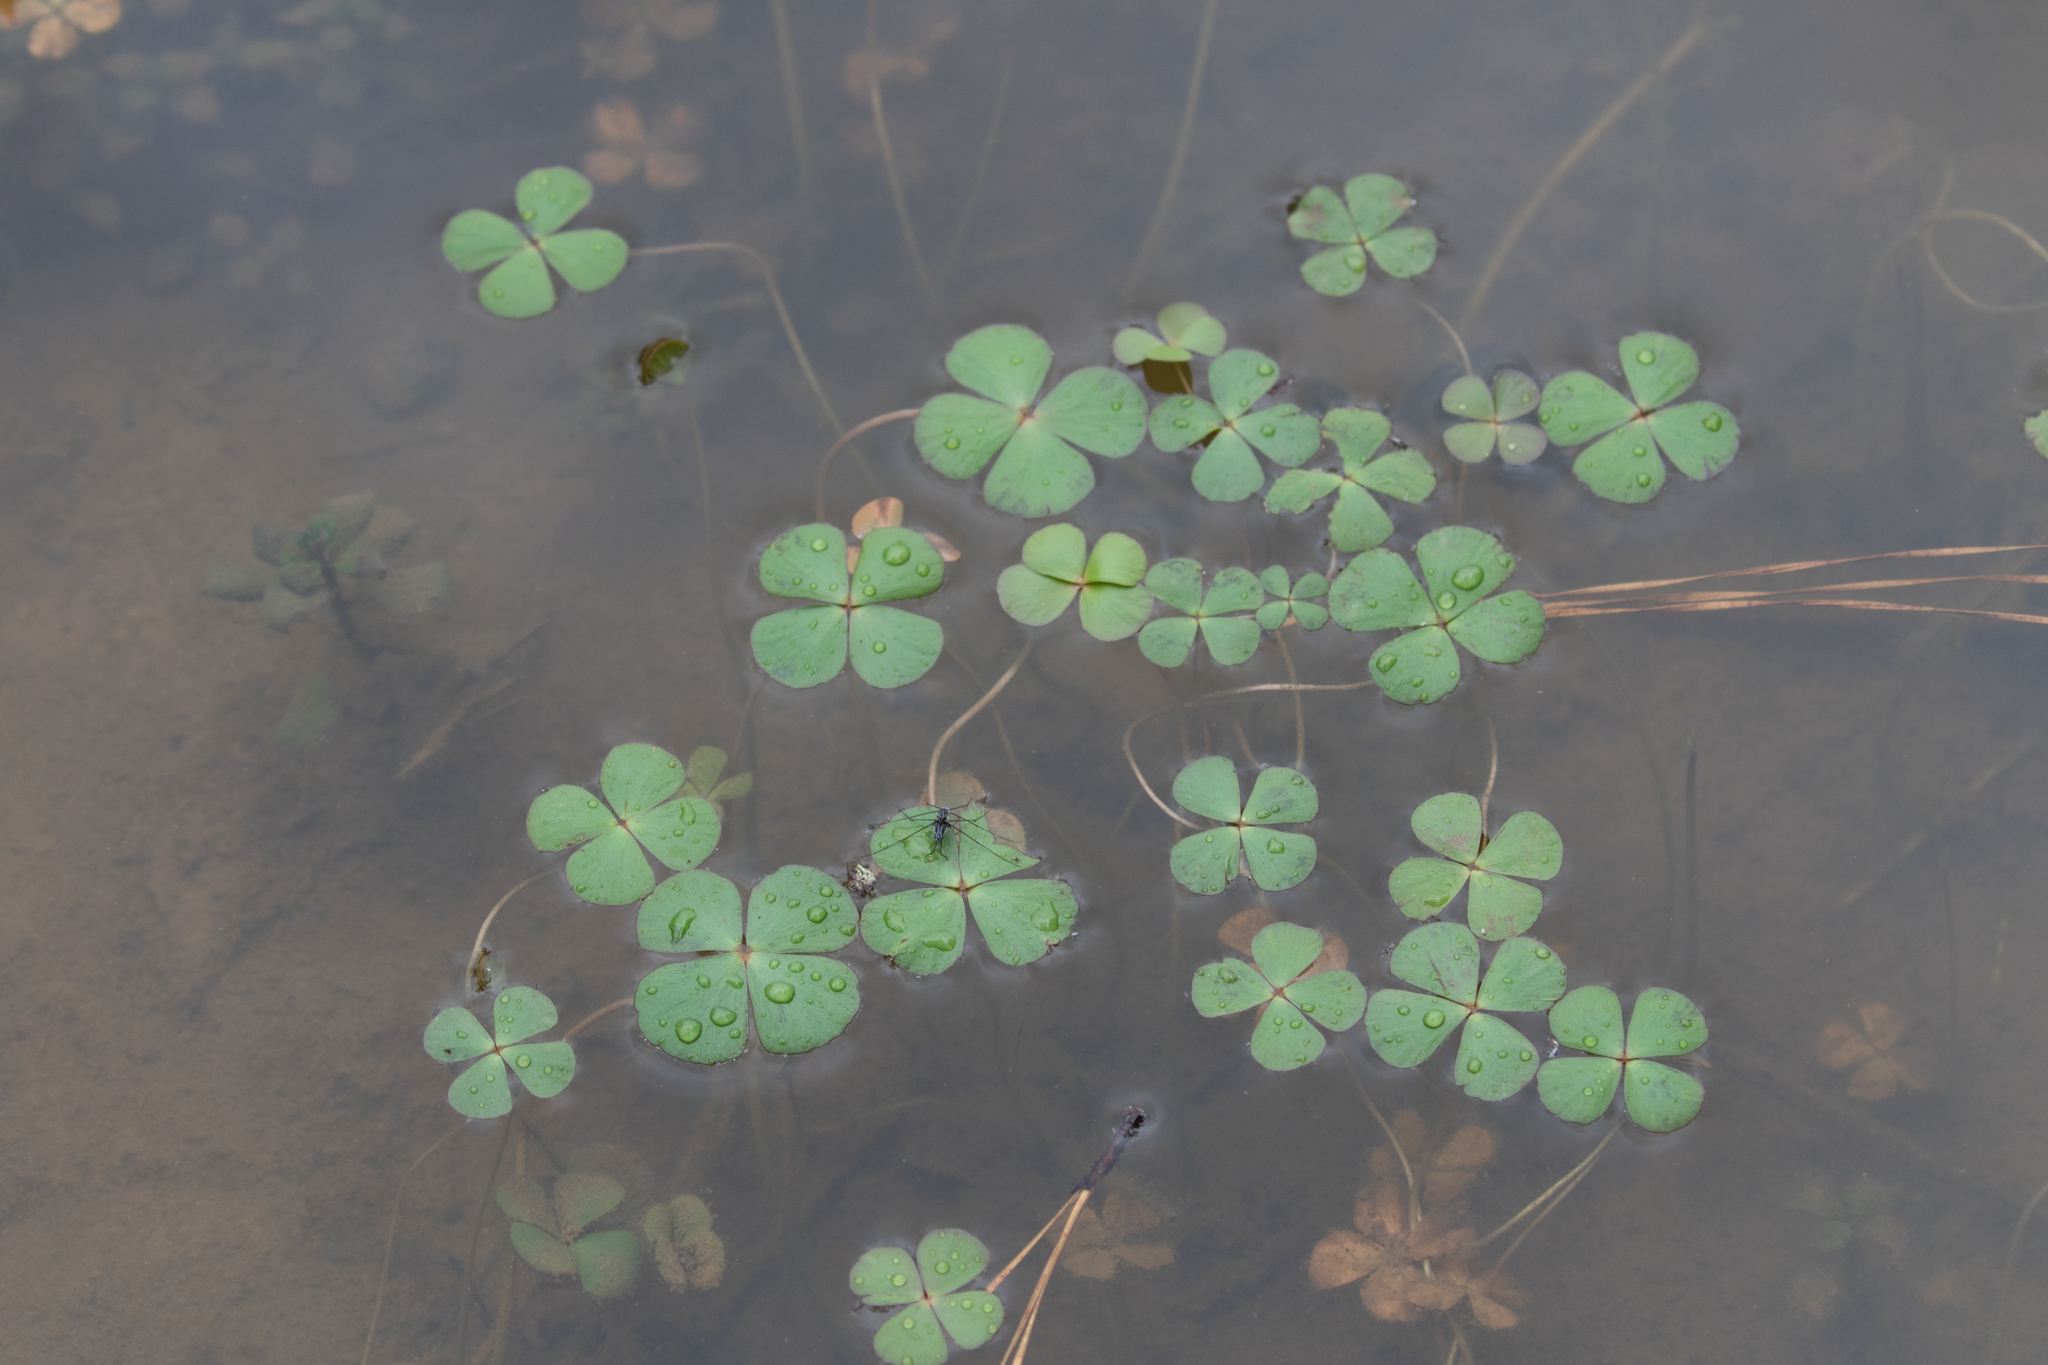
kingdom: Plantae
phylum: Tracheophyta
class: Polypodiopsida
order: Salviniales
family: Marsileaceae
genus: Marsilea
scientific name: Marsilea vestita
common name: Hooked-pepperwort
